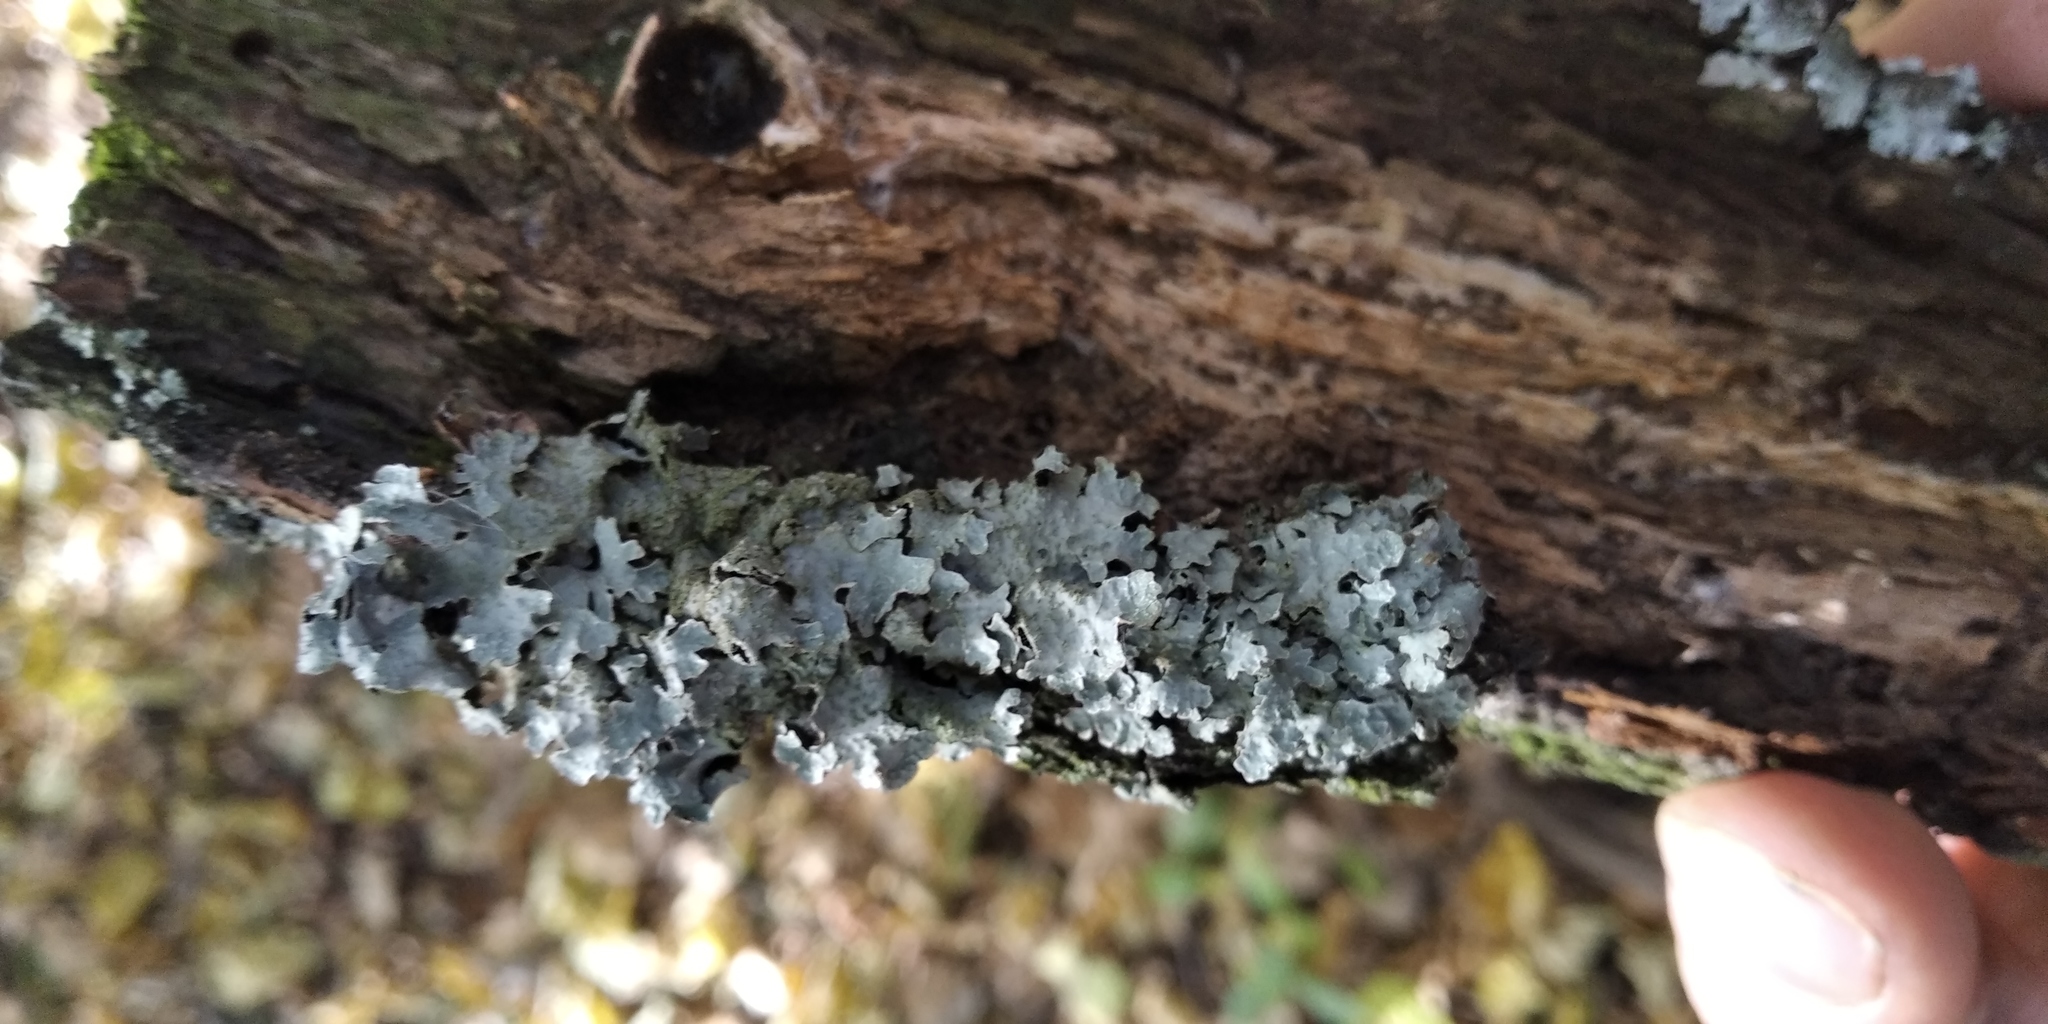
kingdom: Fungi
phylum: Ascomycota
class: Lecanoromycetes
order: Lecanorales
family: Parmeliaceae
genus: Parmelia
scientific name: Parmelia sulcata
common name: Netted shield lichen
